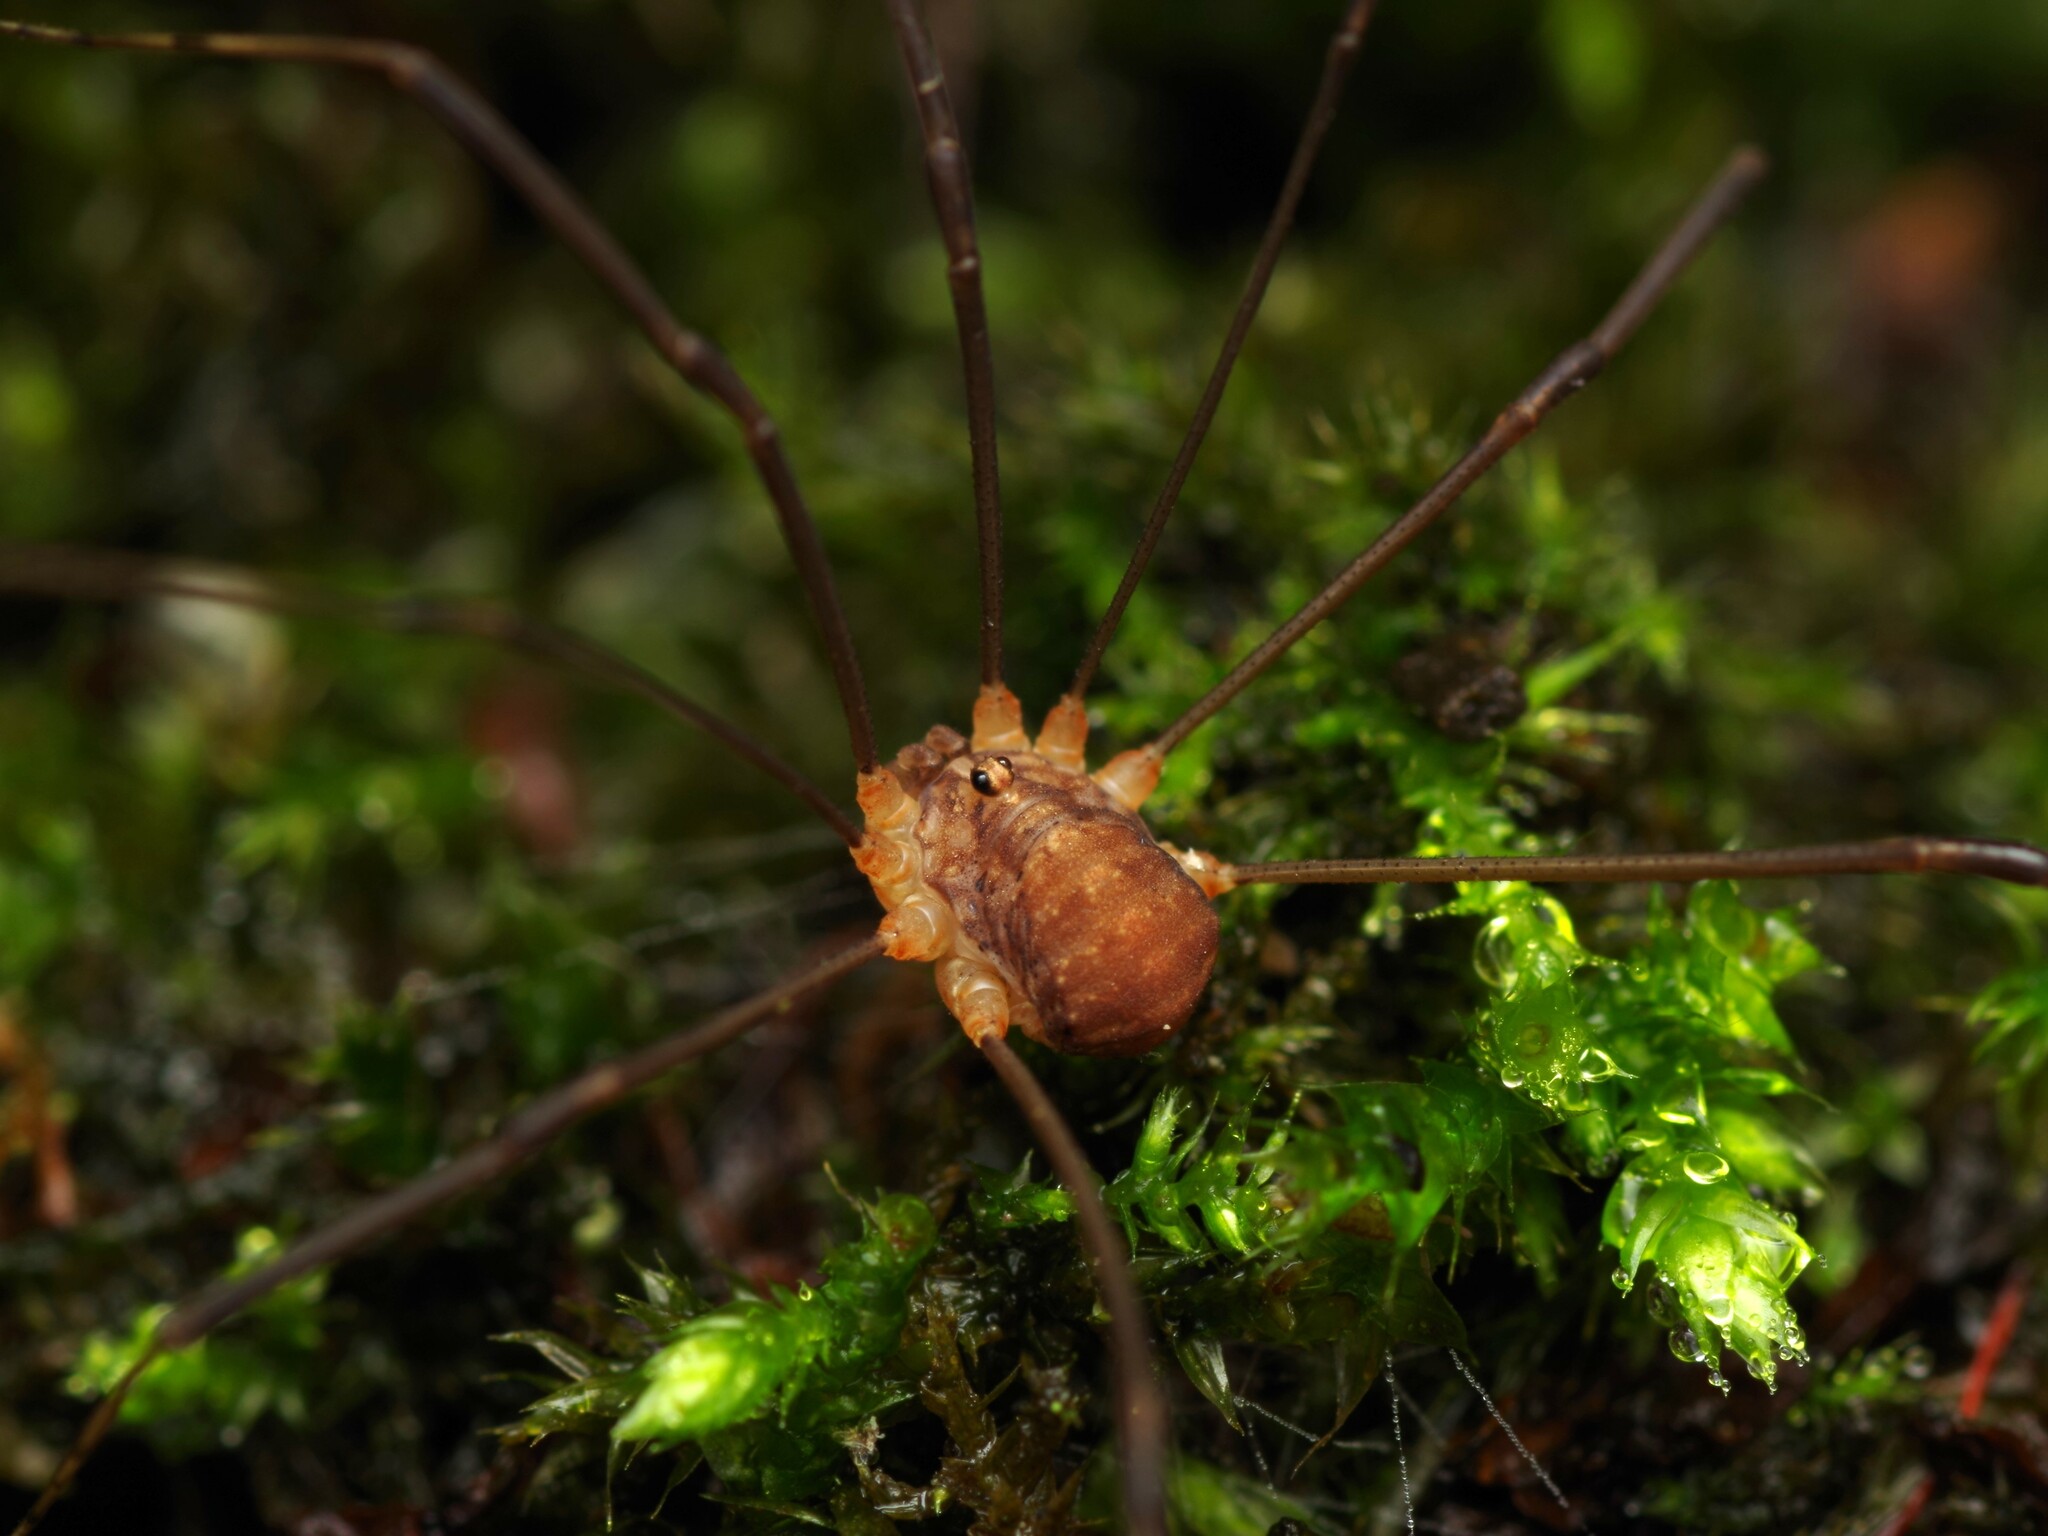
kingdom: Animalia
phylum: Arthropoda
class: Arachnida
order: Opiliones
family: Sclerosomatidae
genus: Nelima
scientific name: Nelima doriae
